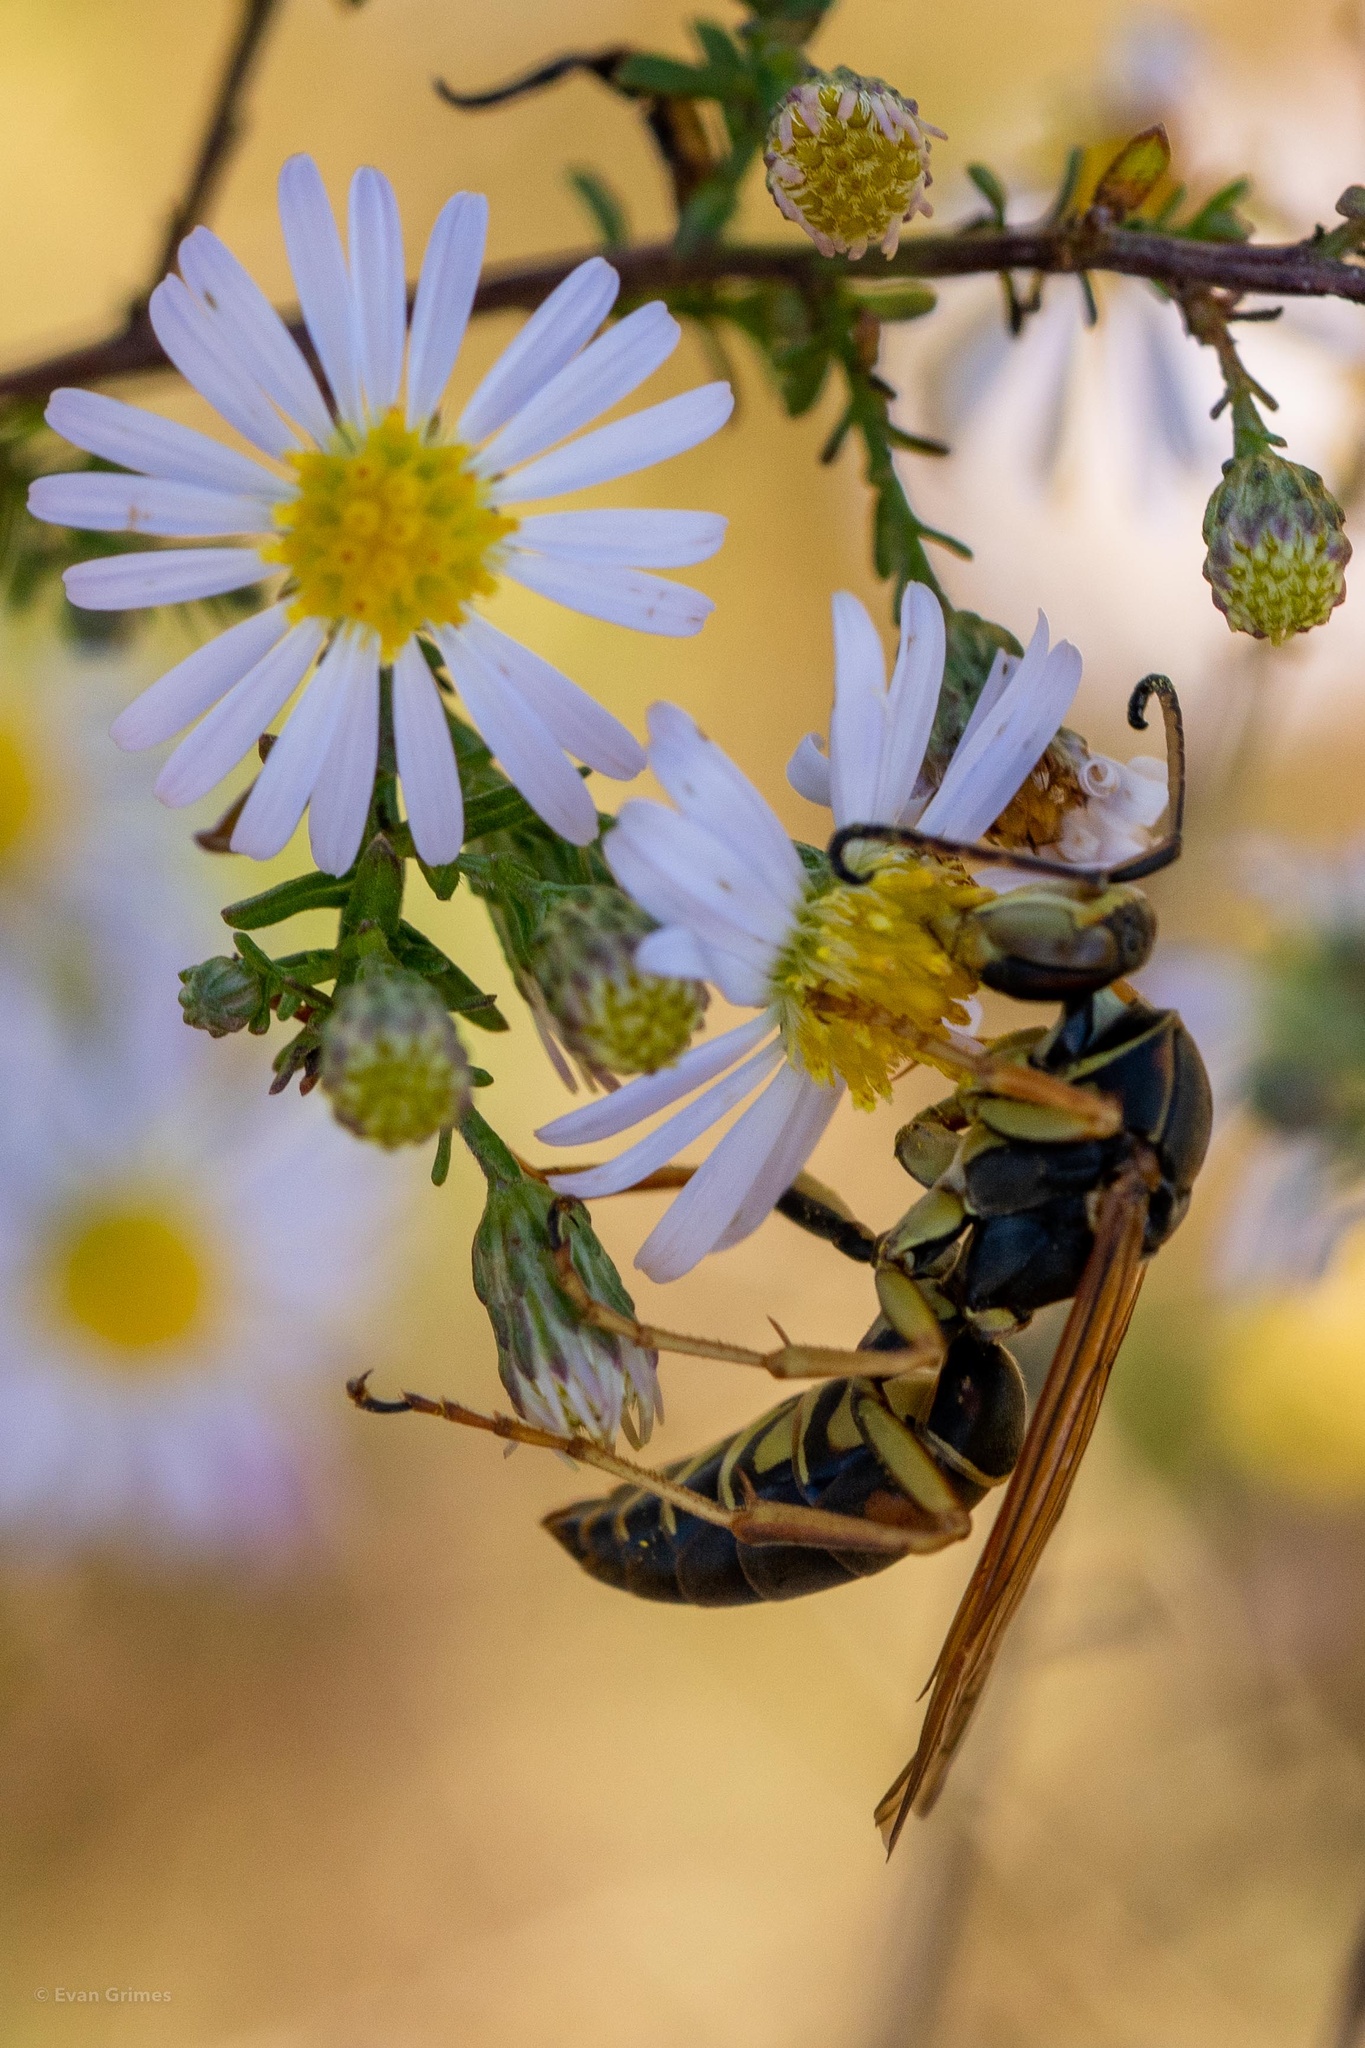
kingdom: Animalia
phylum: Arthropoda
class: Insecta
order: Hymenoptera
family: Eumenidae
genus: Polistes
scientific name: Polistes fuscatus
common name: Dark paper wasp
